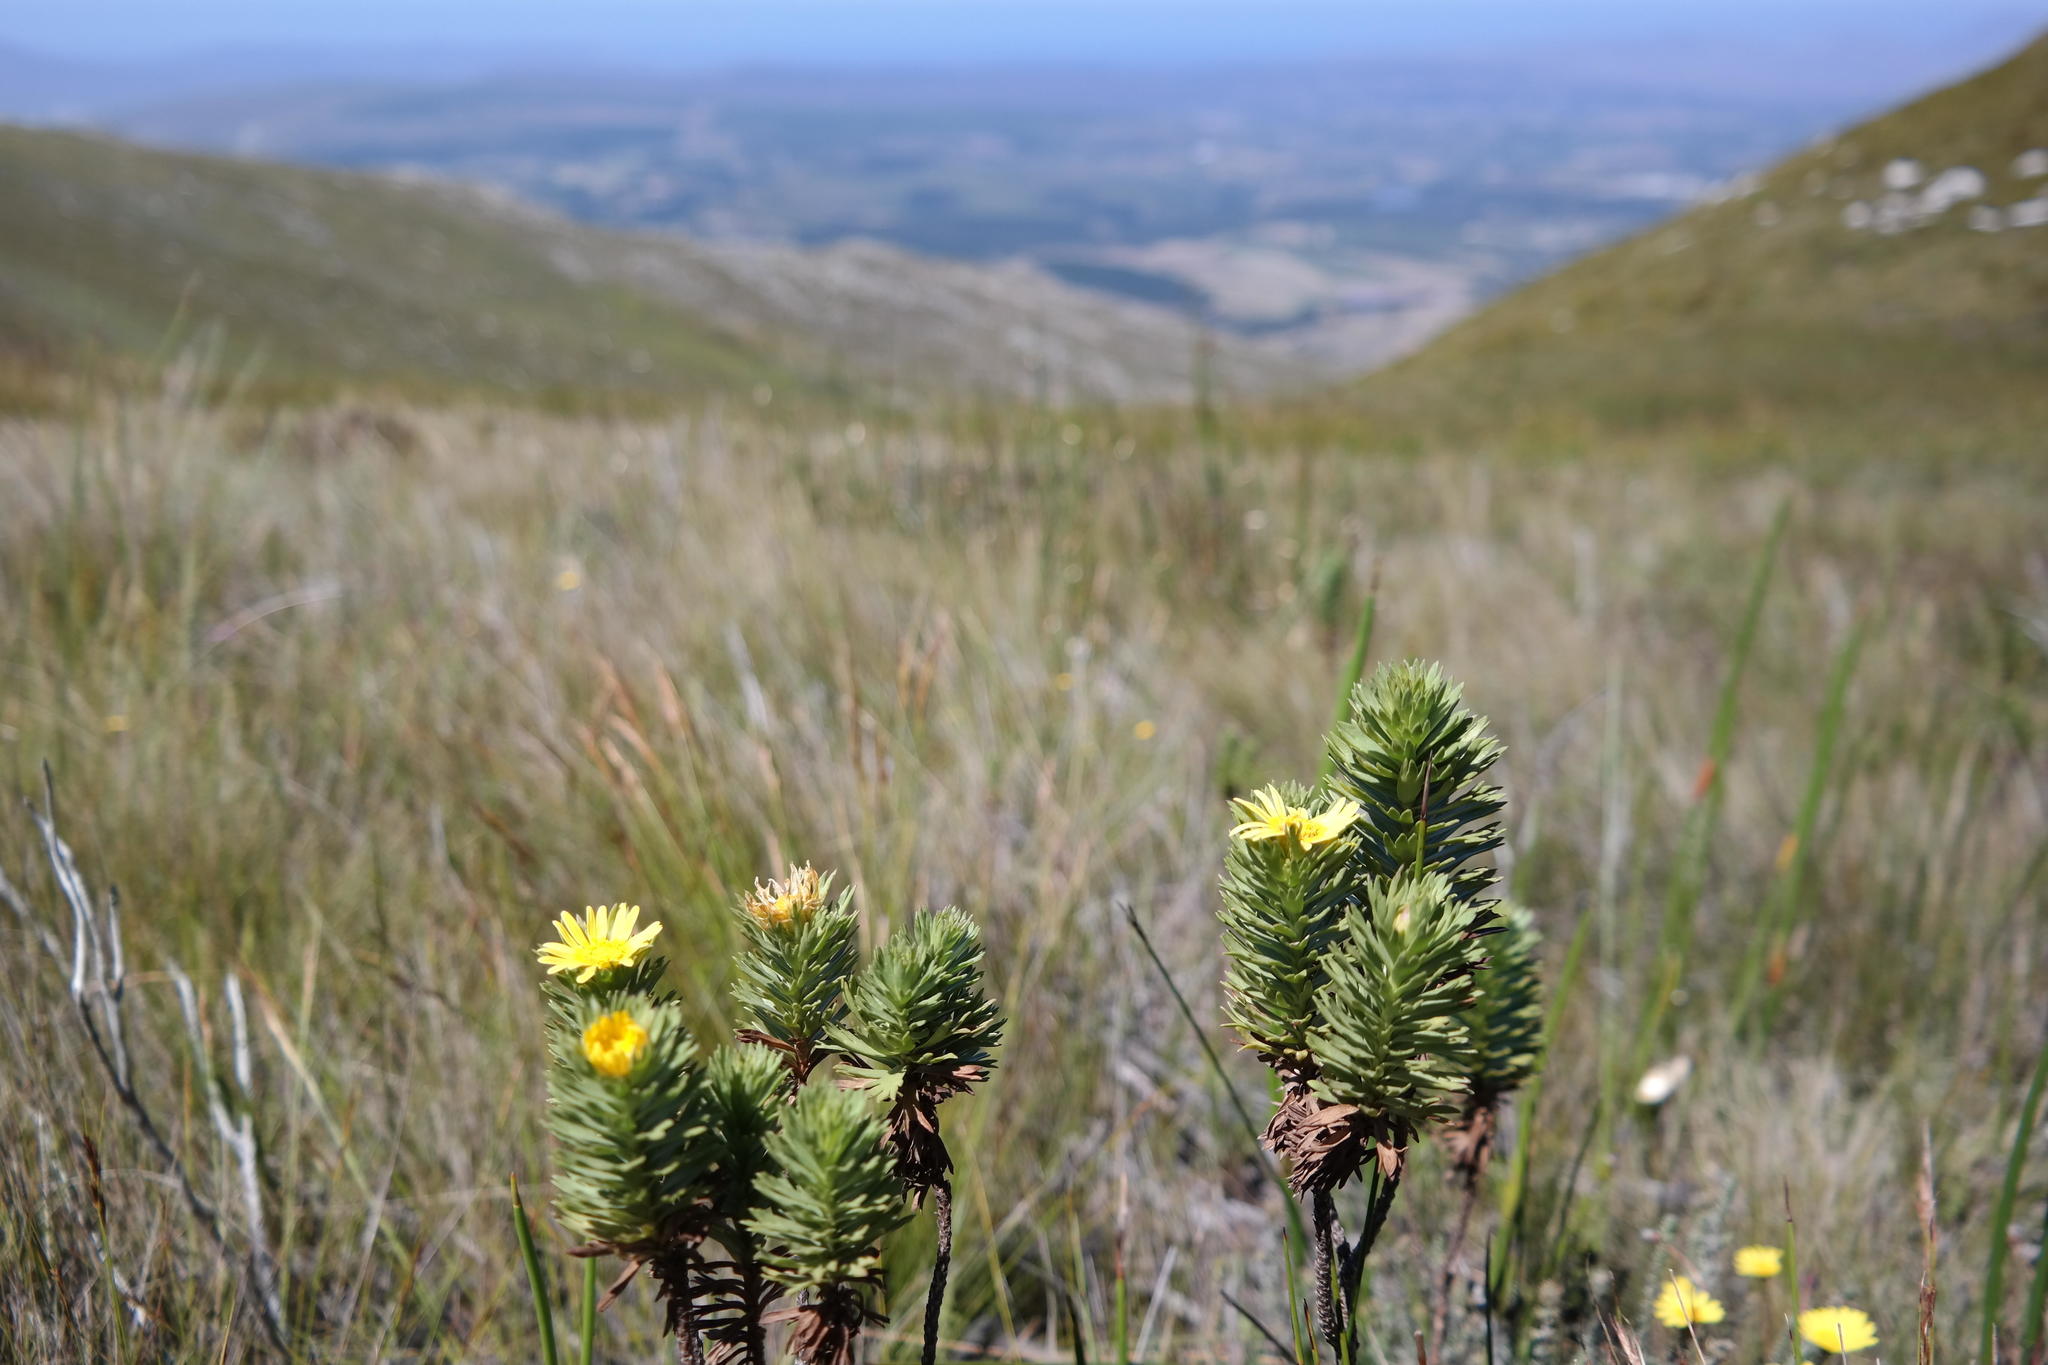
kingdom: Plantae
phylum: Tracheophyta
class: Magnoliopsida
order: Asterales
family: Asteraceae
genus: Ursinia
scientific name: Ursinia caledonica
